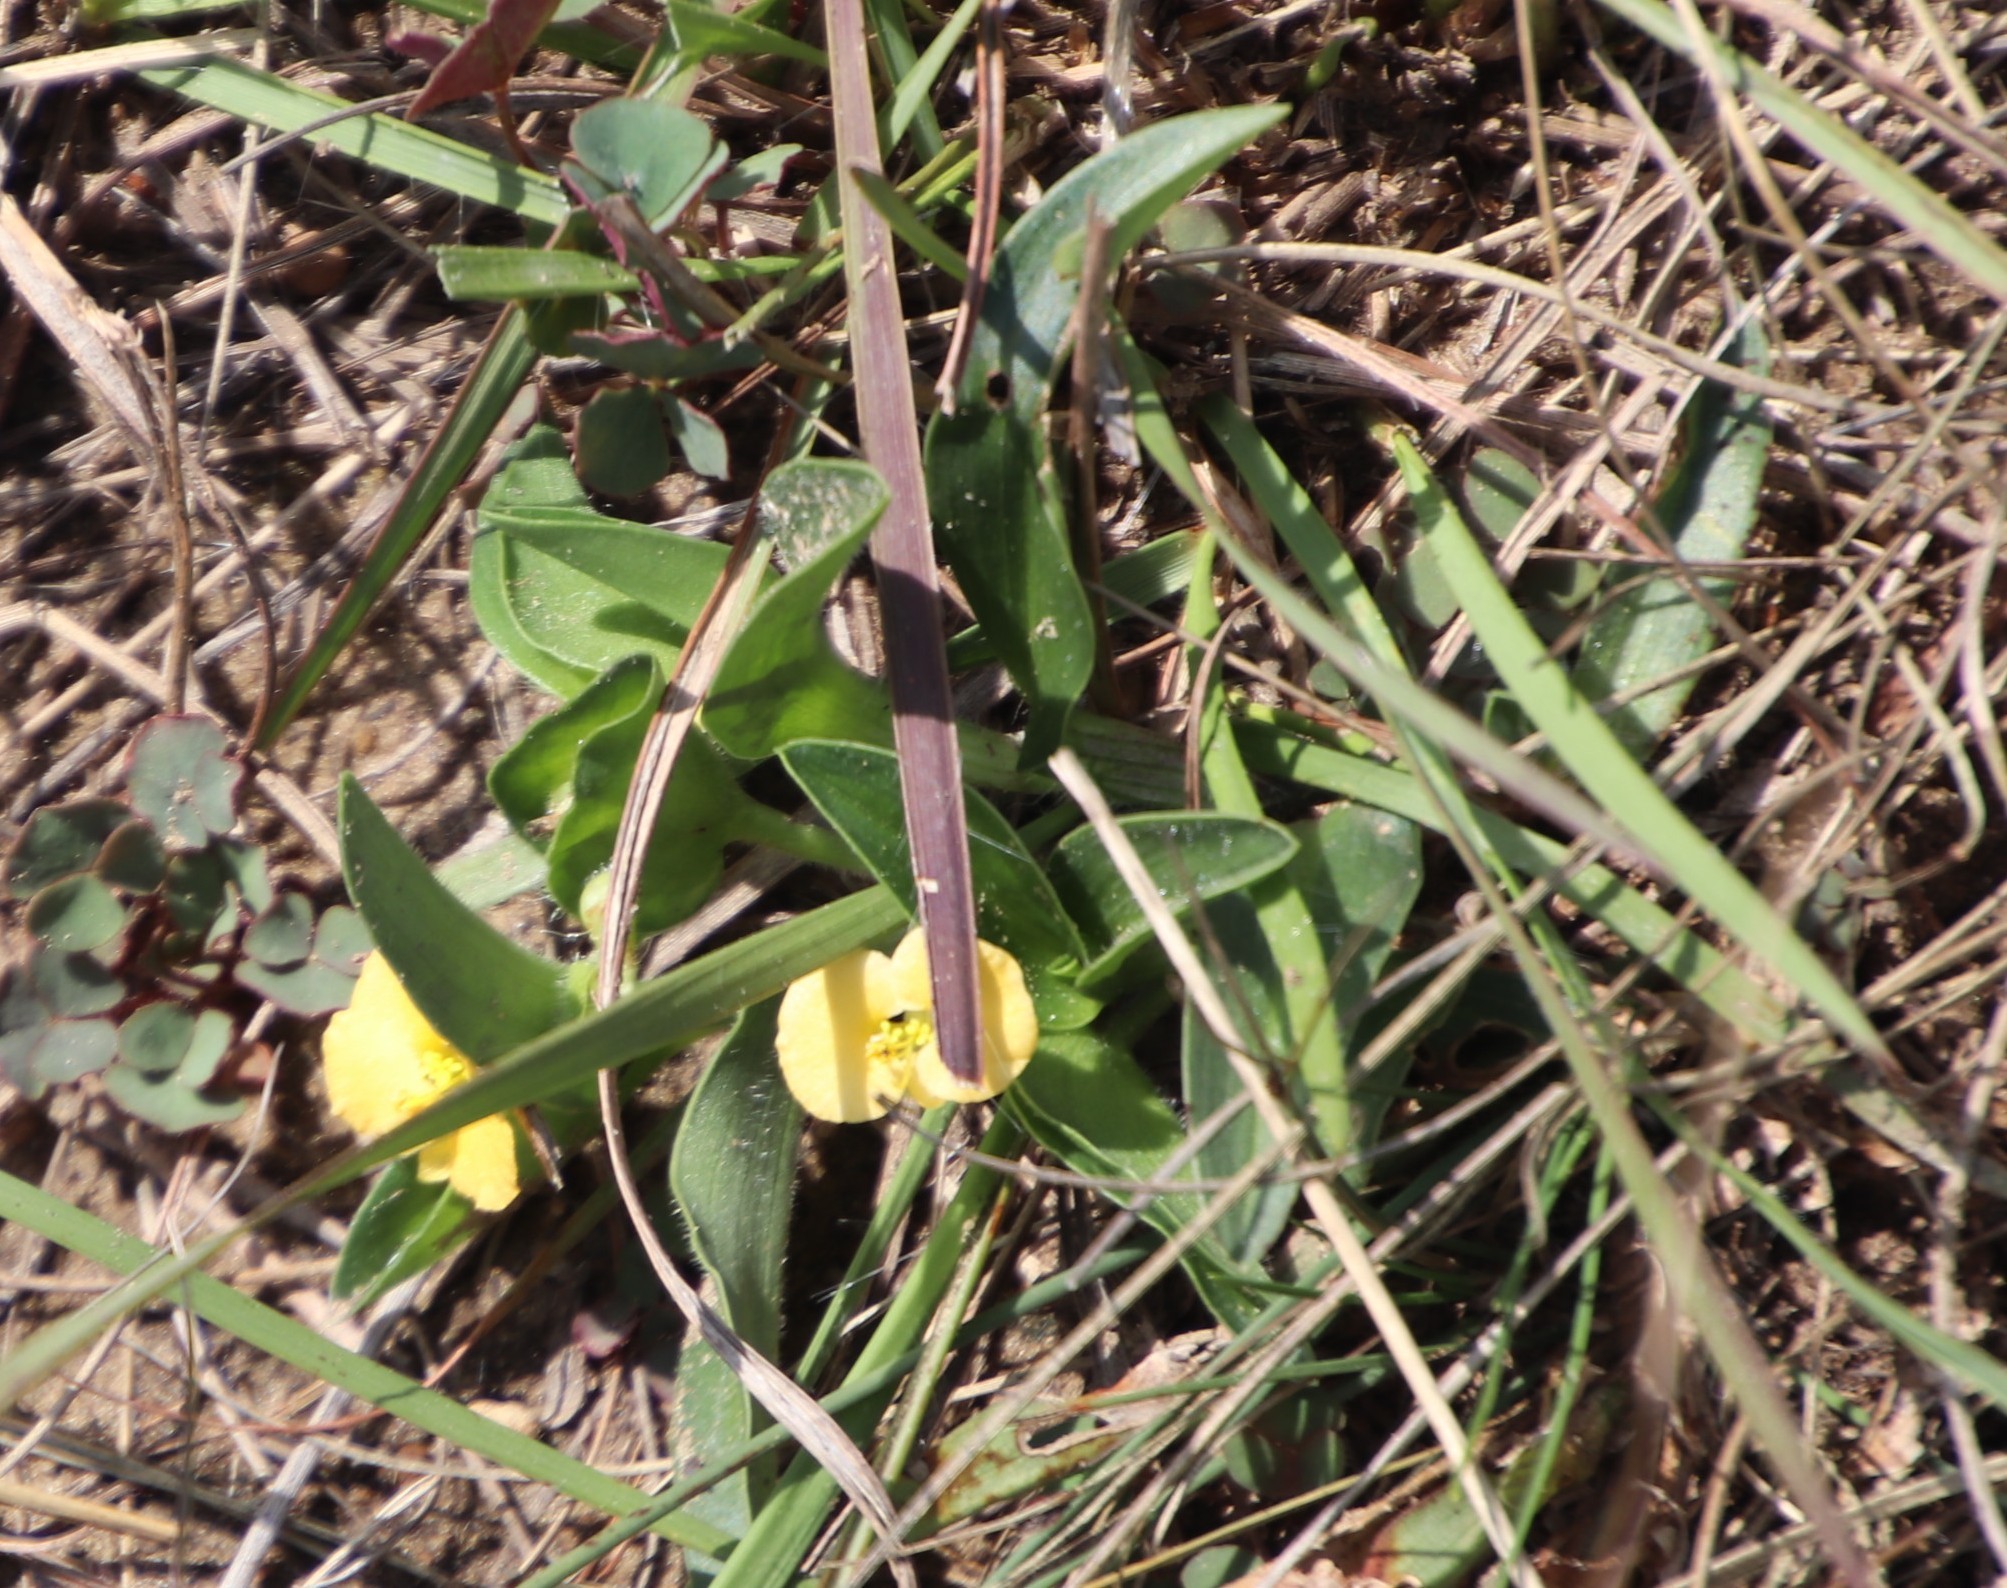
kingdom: Plantae
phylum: Tracheophyta
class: Liliopsida
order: Commelinales
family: Commelinaceae
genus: Commelina
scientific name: Commelina africana
